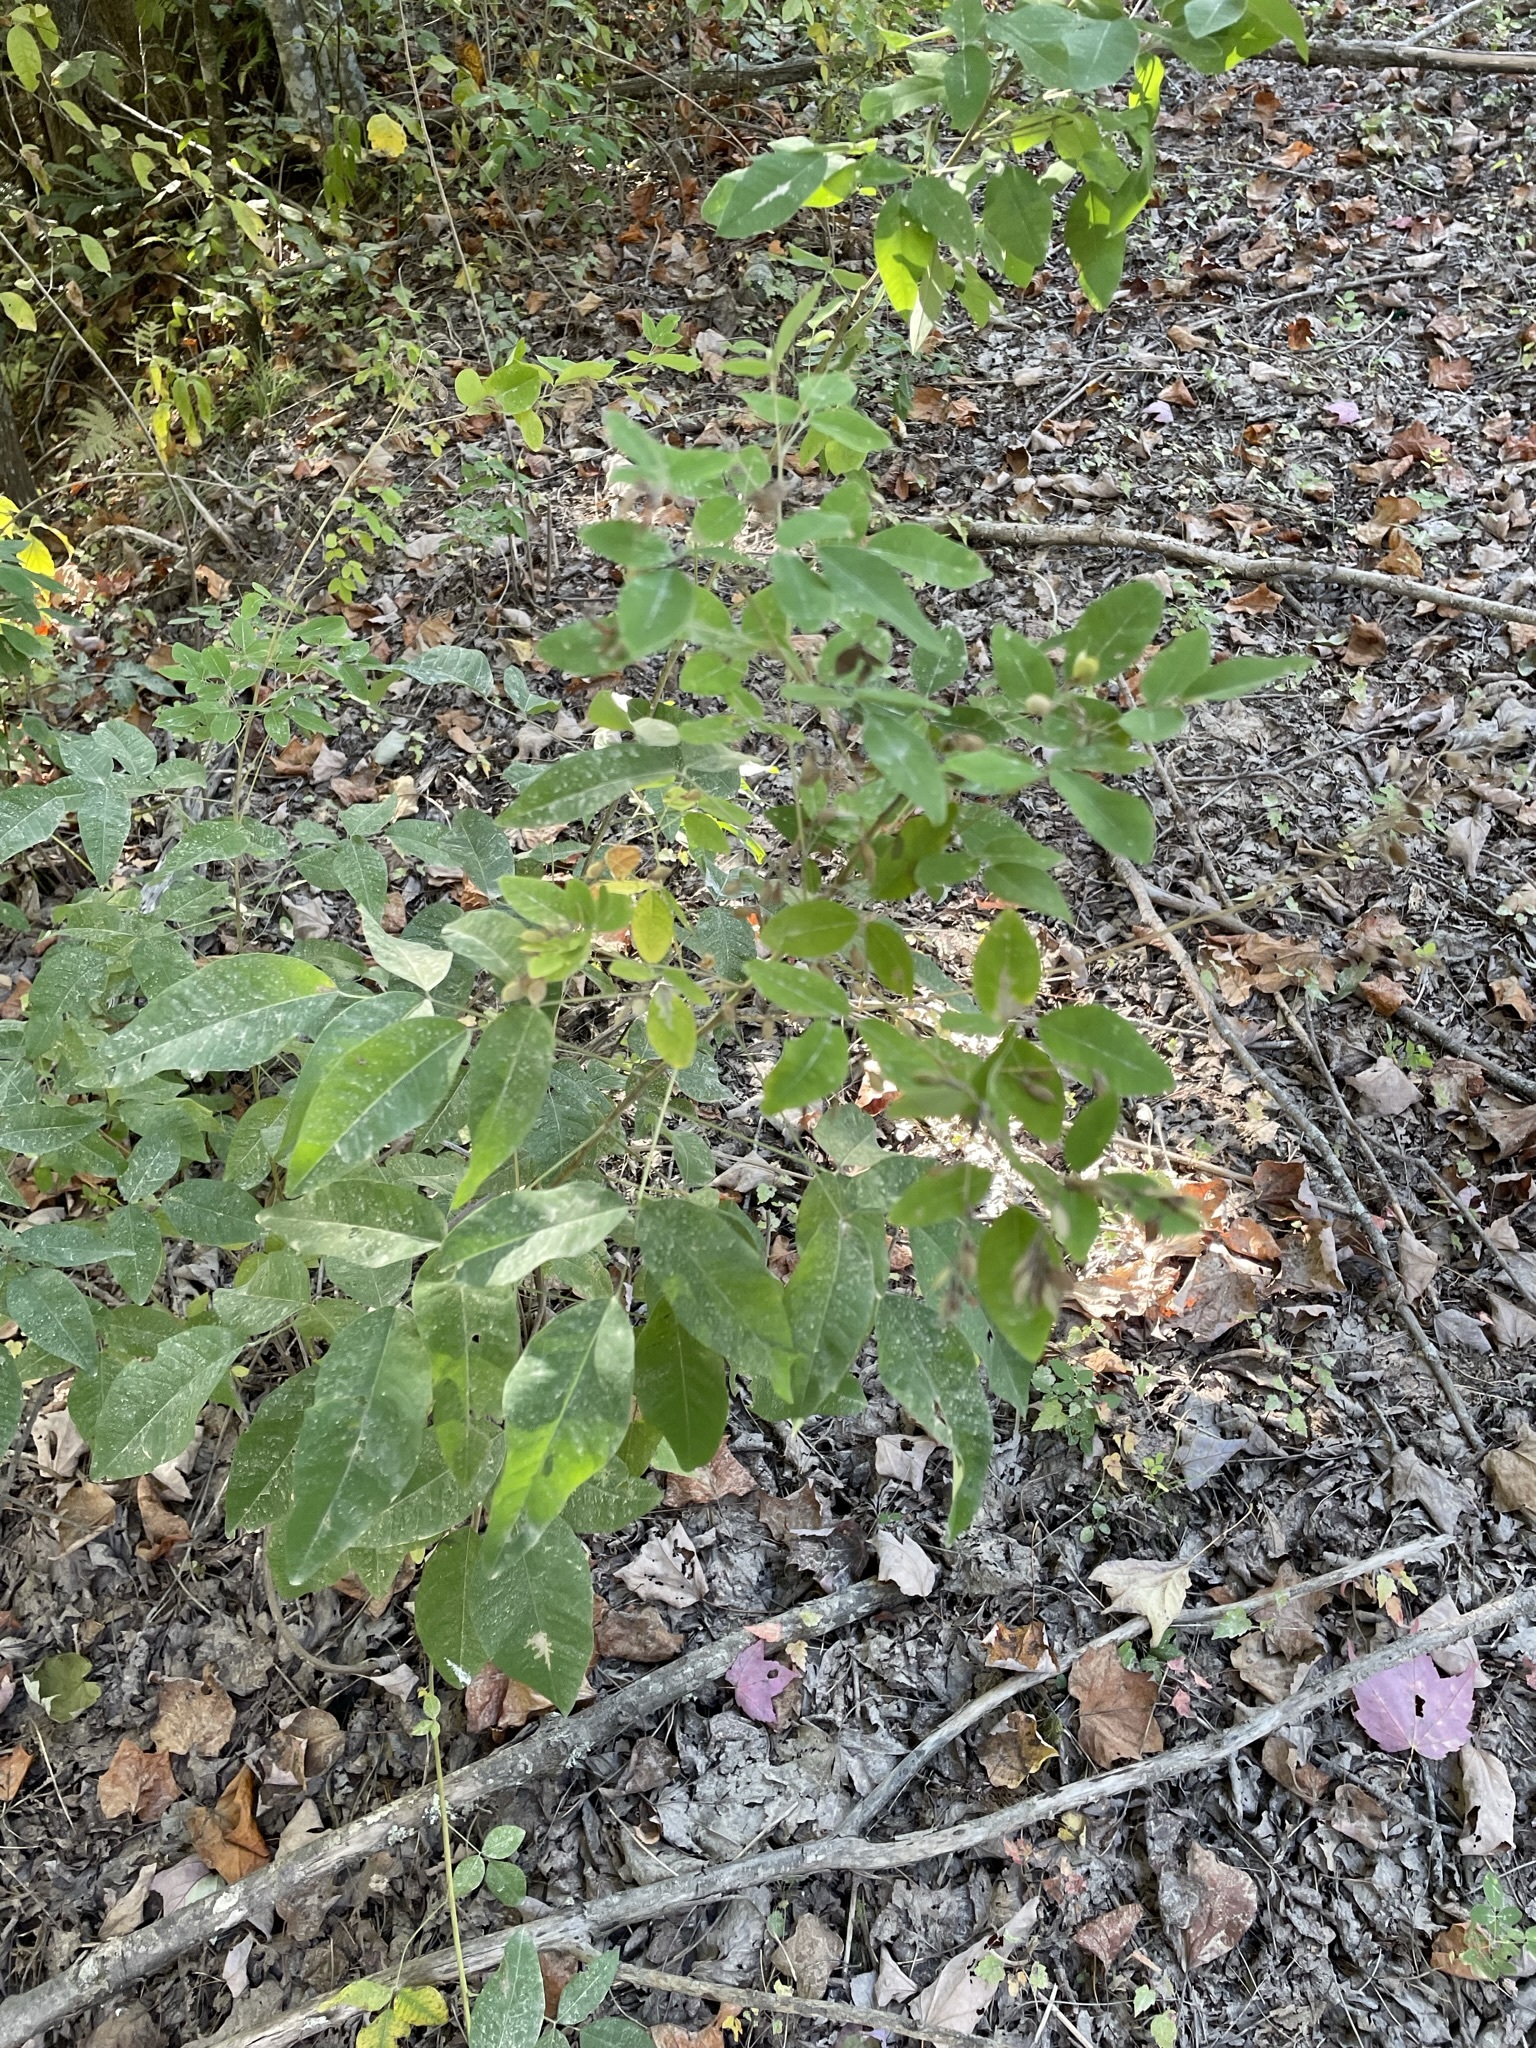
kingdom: Plantae
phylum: Tracheophyta
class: Magnoliopsida
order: Fabales
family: Fabaceae
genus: Lespedeza
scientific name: Lespedeza bicolor
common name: Shrub lespedeza
